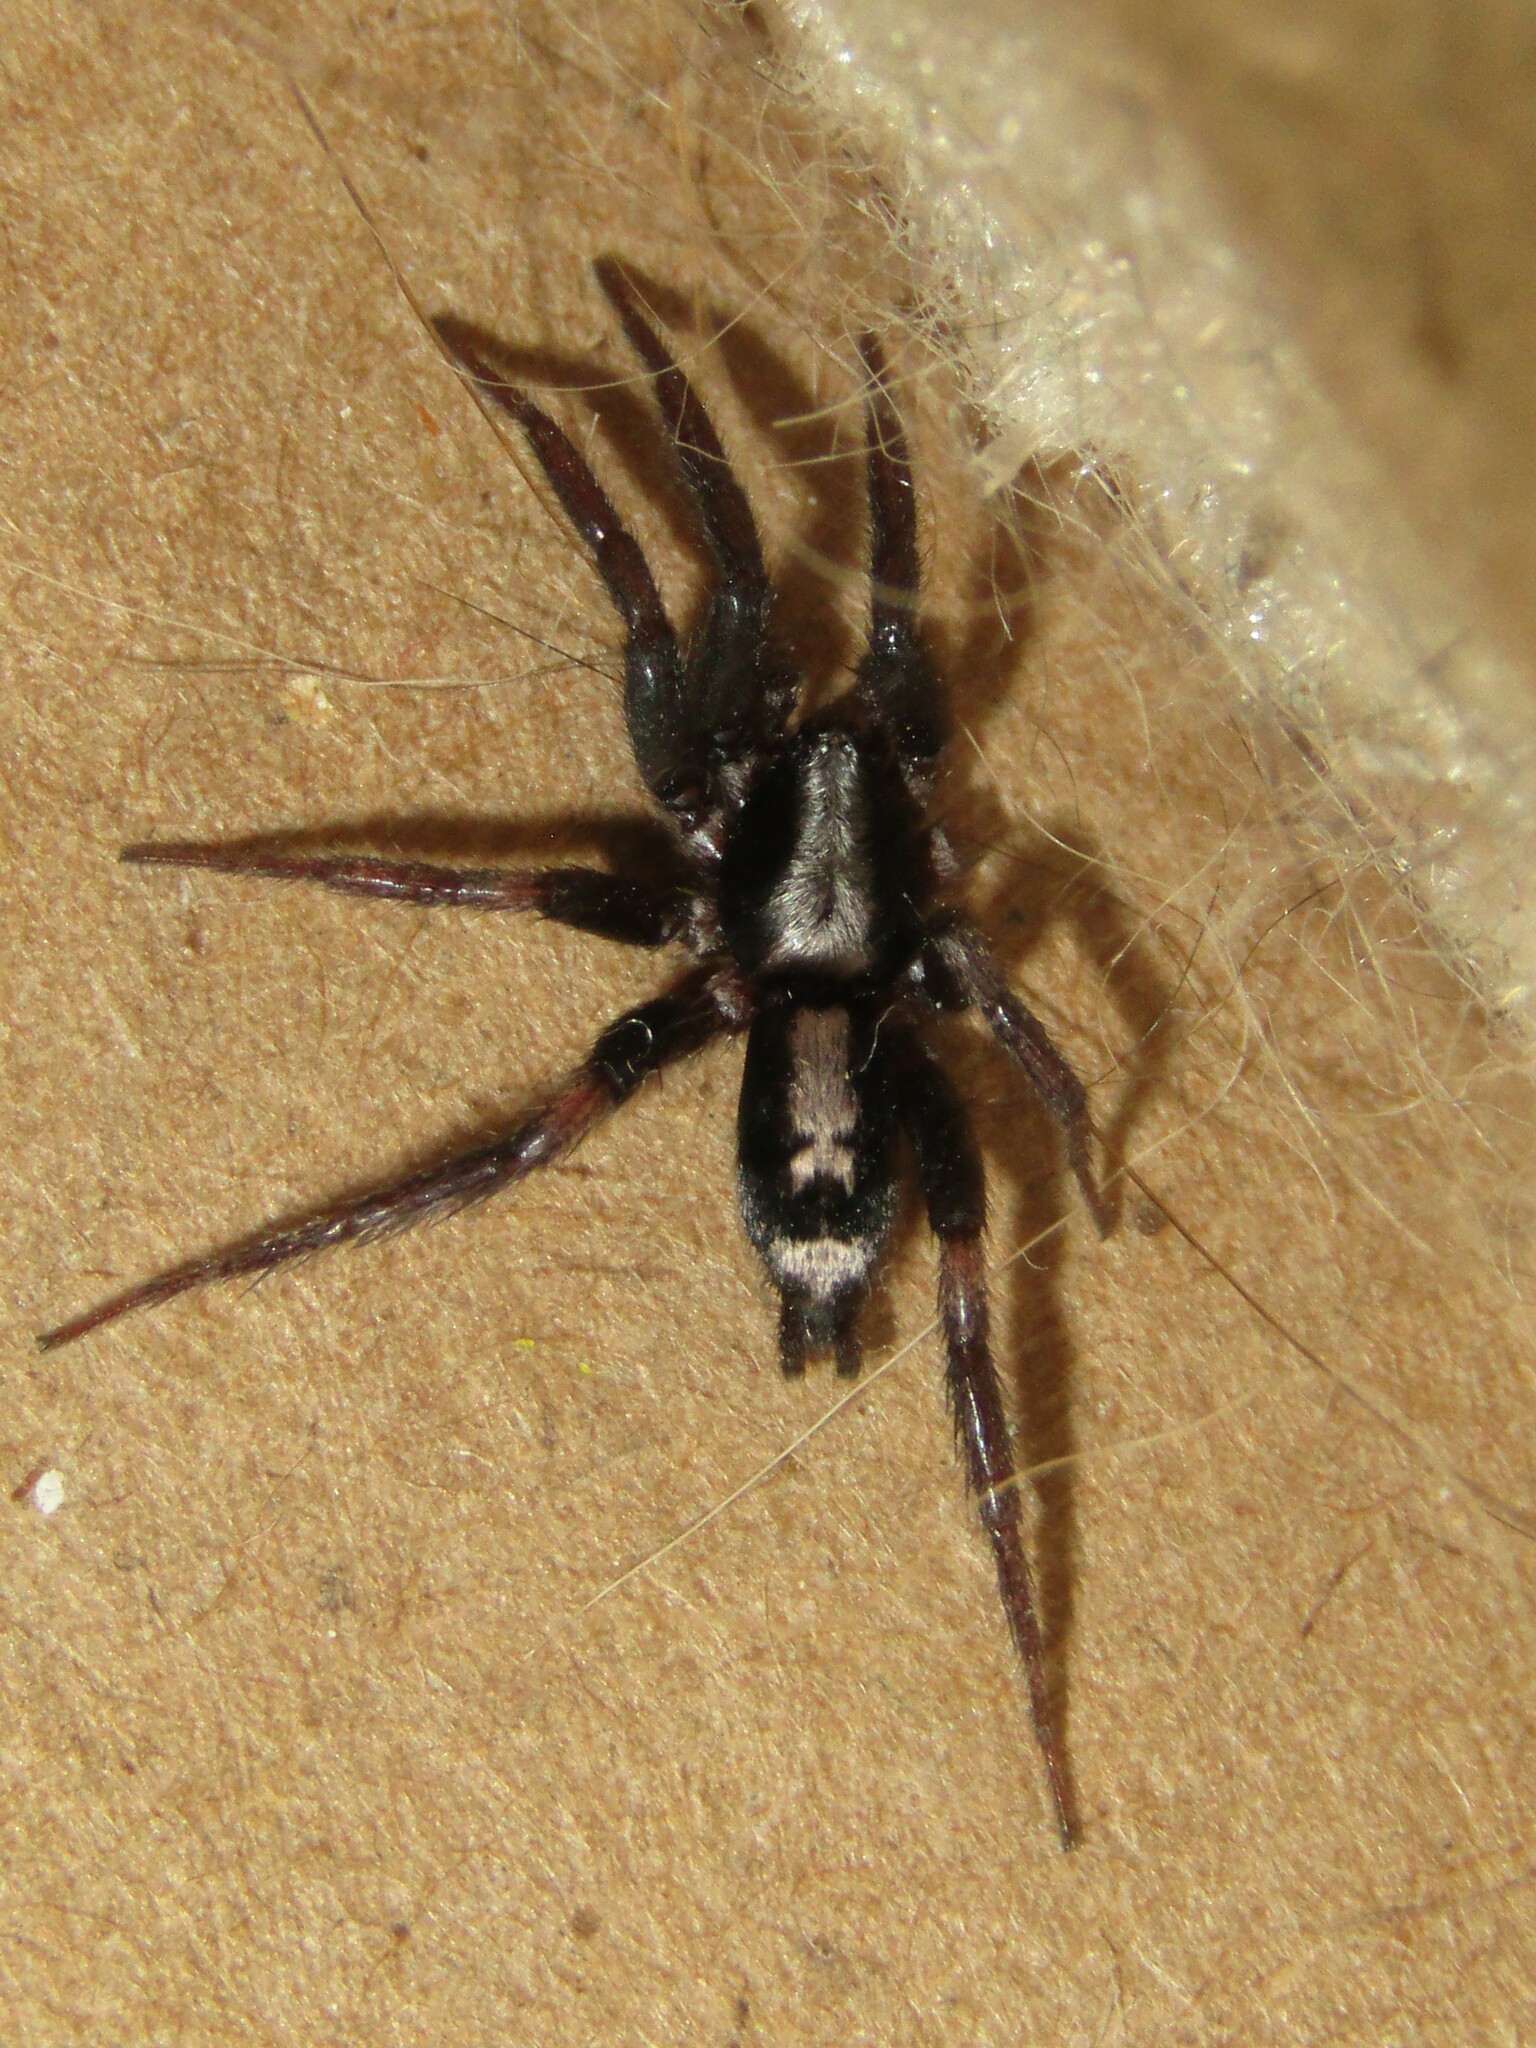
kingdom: Animalia
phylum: Arthropoda
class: Arachnida
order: Araneae
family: Gnaphosidae
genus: Herpyllus
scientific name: Herpyllus ecclesiasticus
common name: Eastern parson spider
